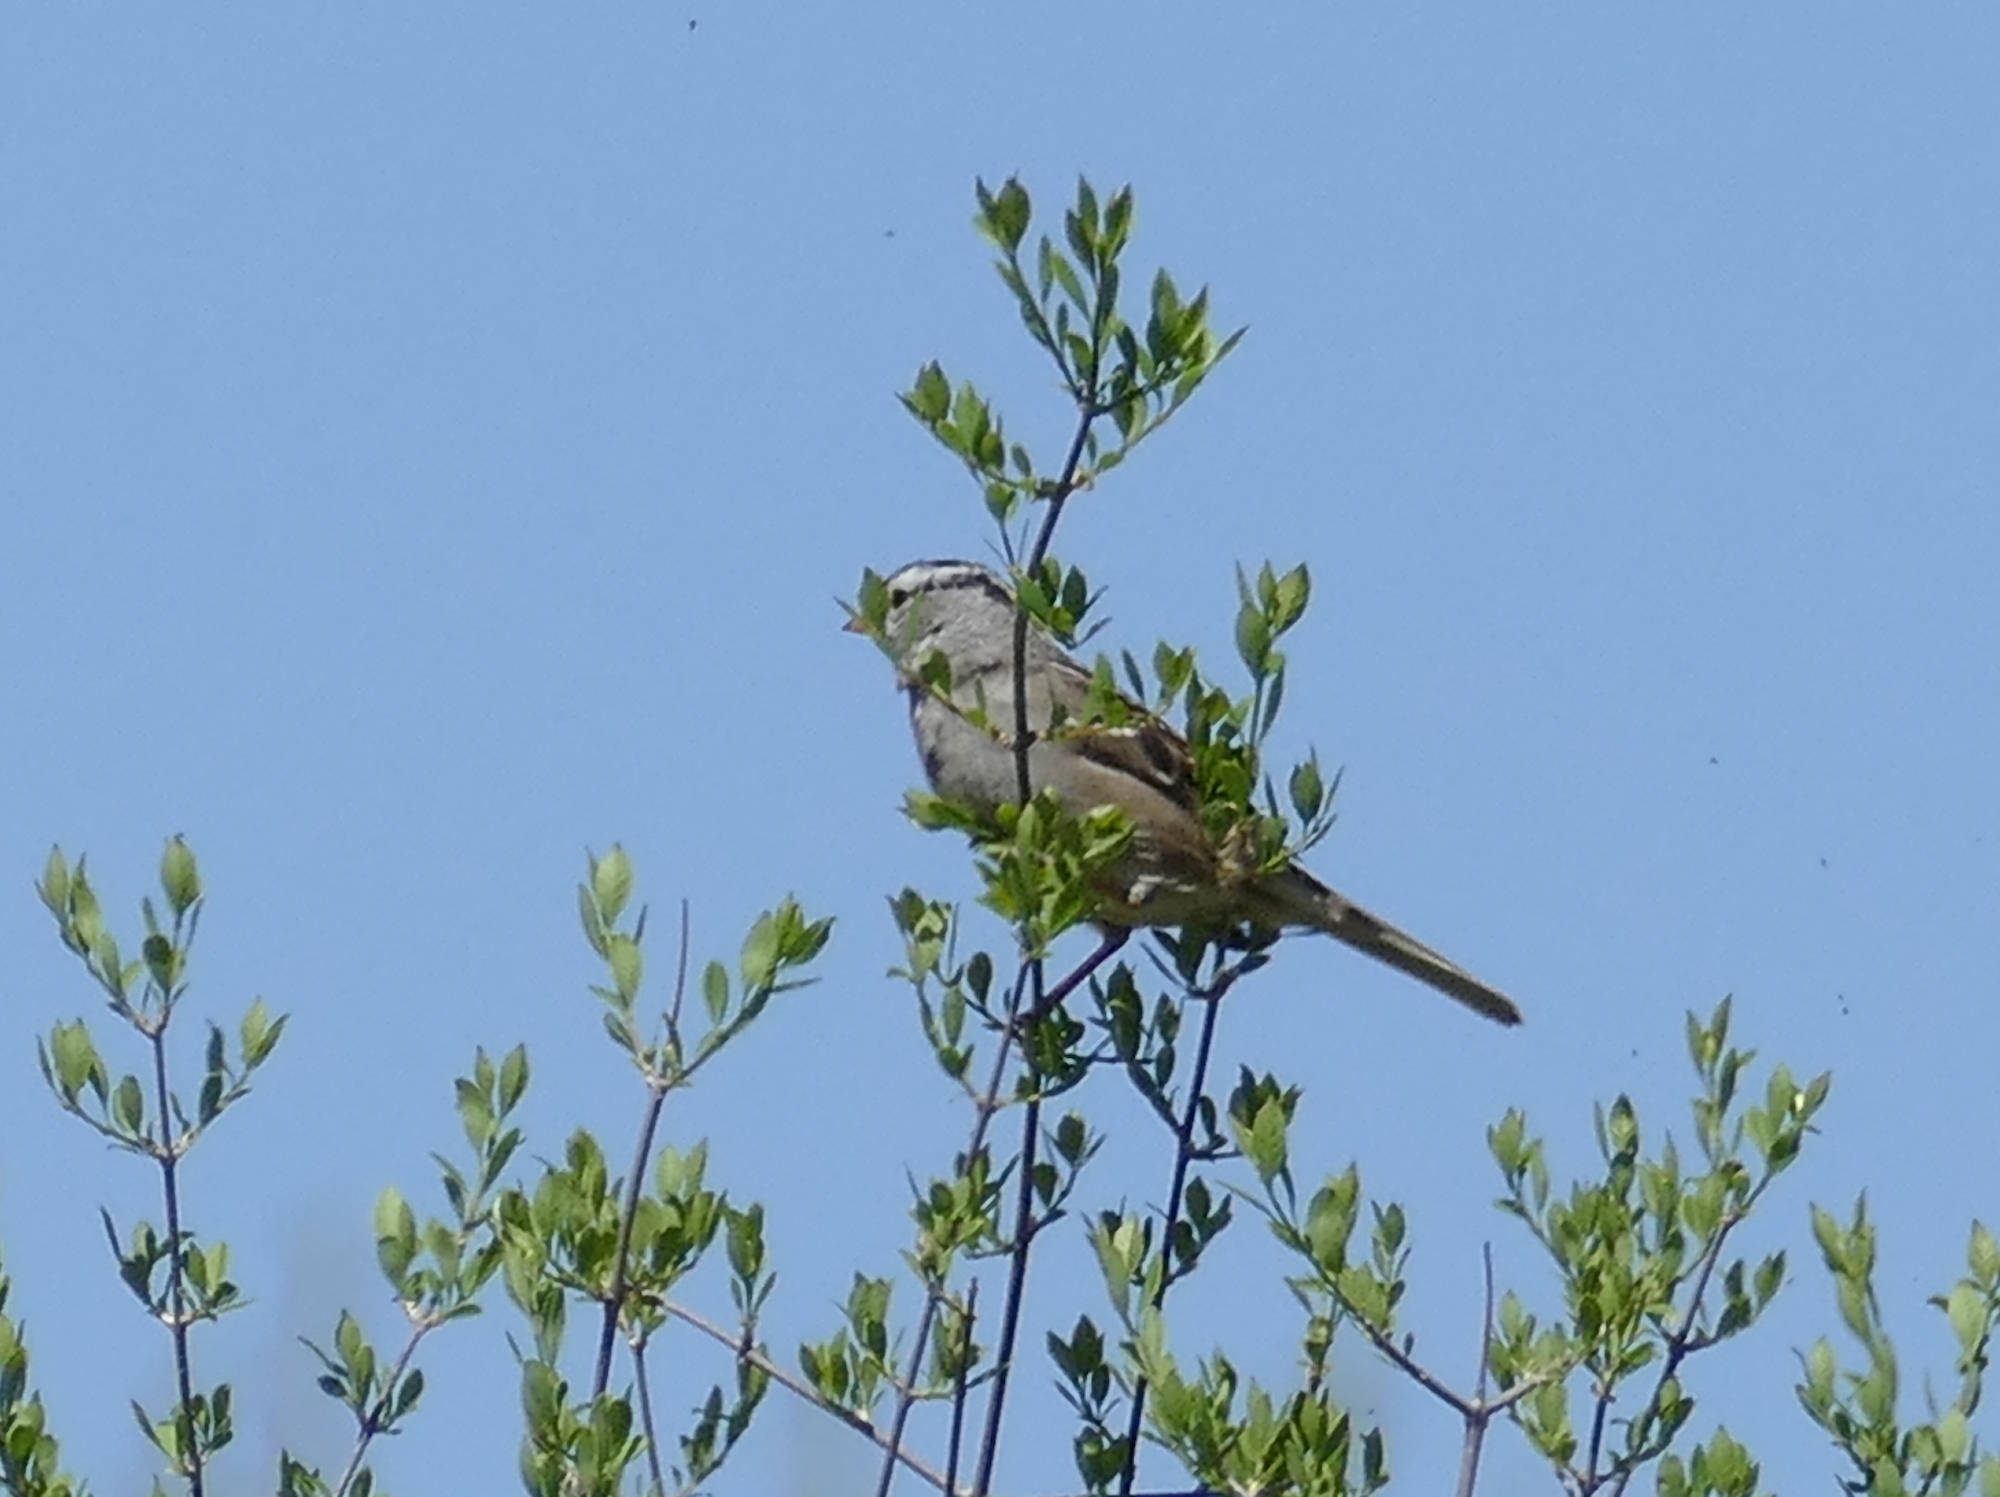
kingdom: Animalia
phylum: Chordata
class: Aves
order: Passeriformes
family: Passerellidae
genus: Zonotrichia
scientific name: Zonotrichia leucophrys
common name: White-crowned sparrow
